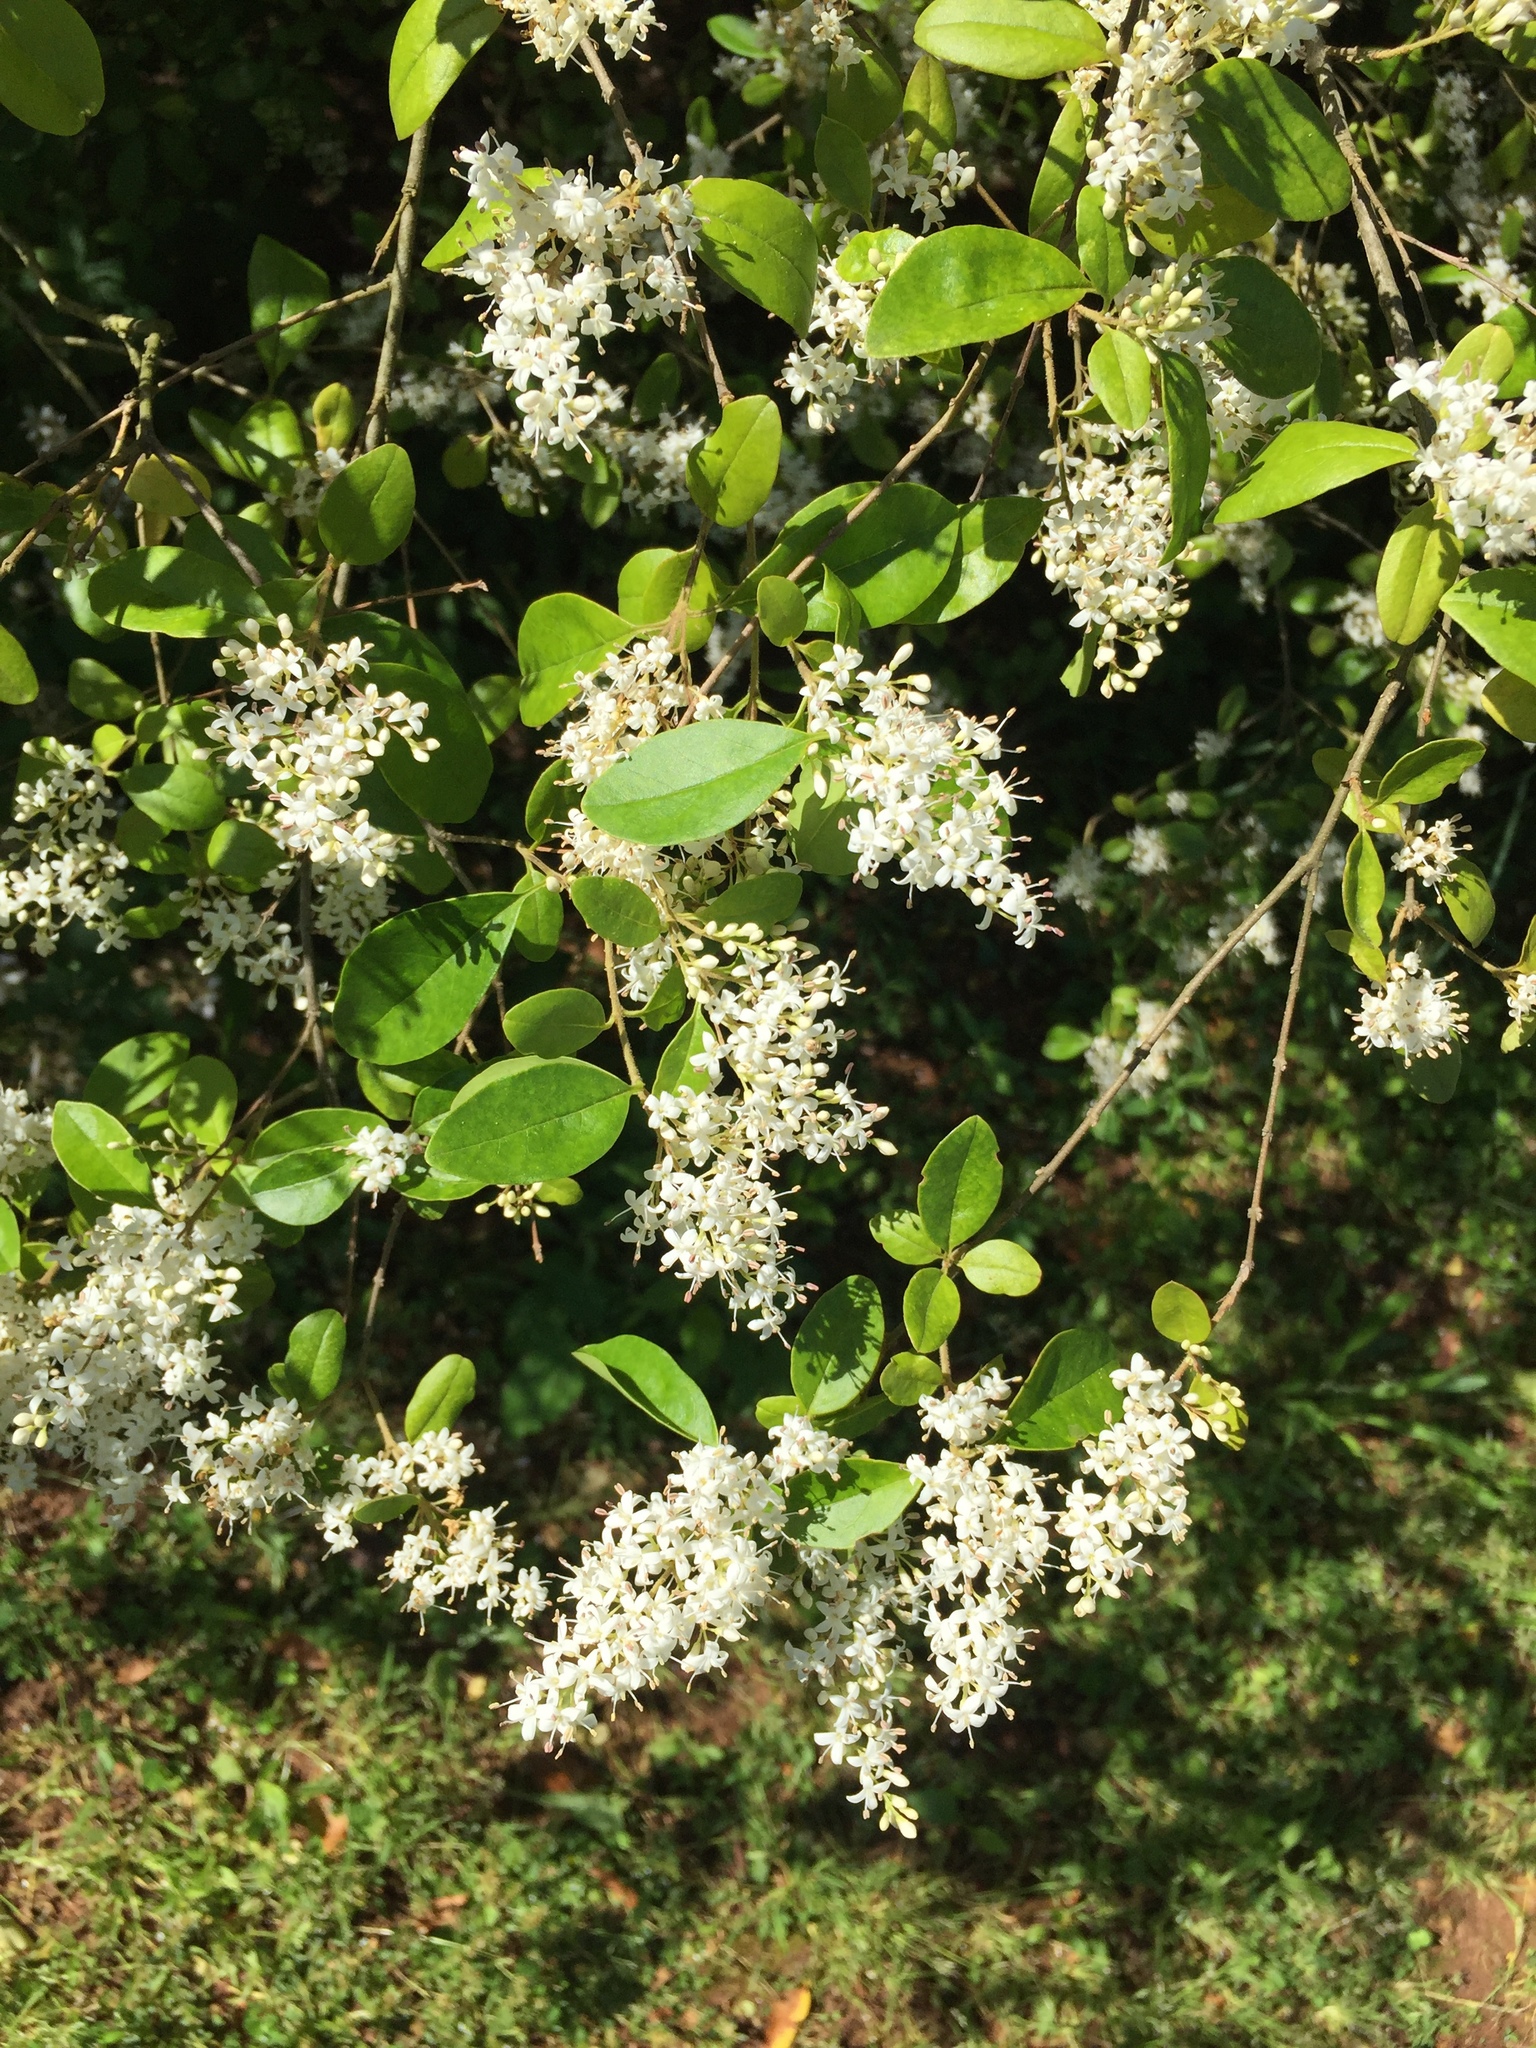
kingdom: Plantae
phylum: Tracheophyta
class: Magnoliopsida
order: Lamiales
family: Oleaceae
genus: Ligustrum
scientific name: Ligustrum sinense
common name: Chinese privet
